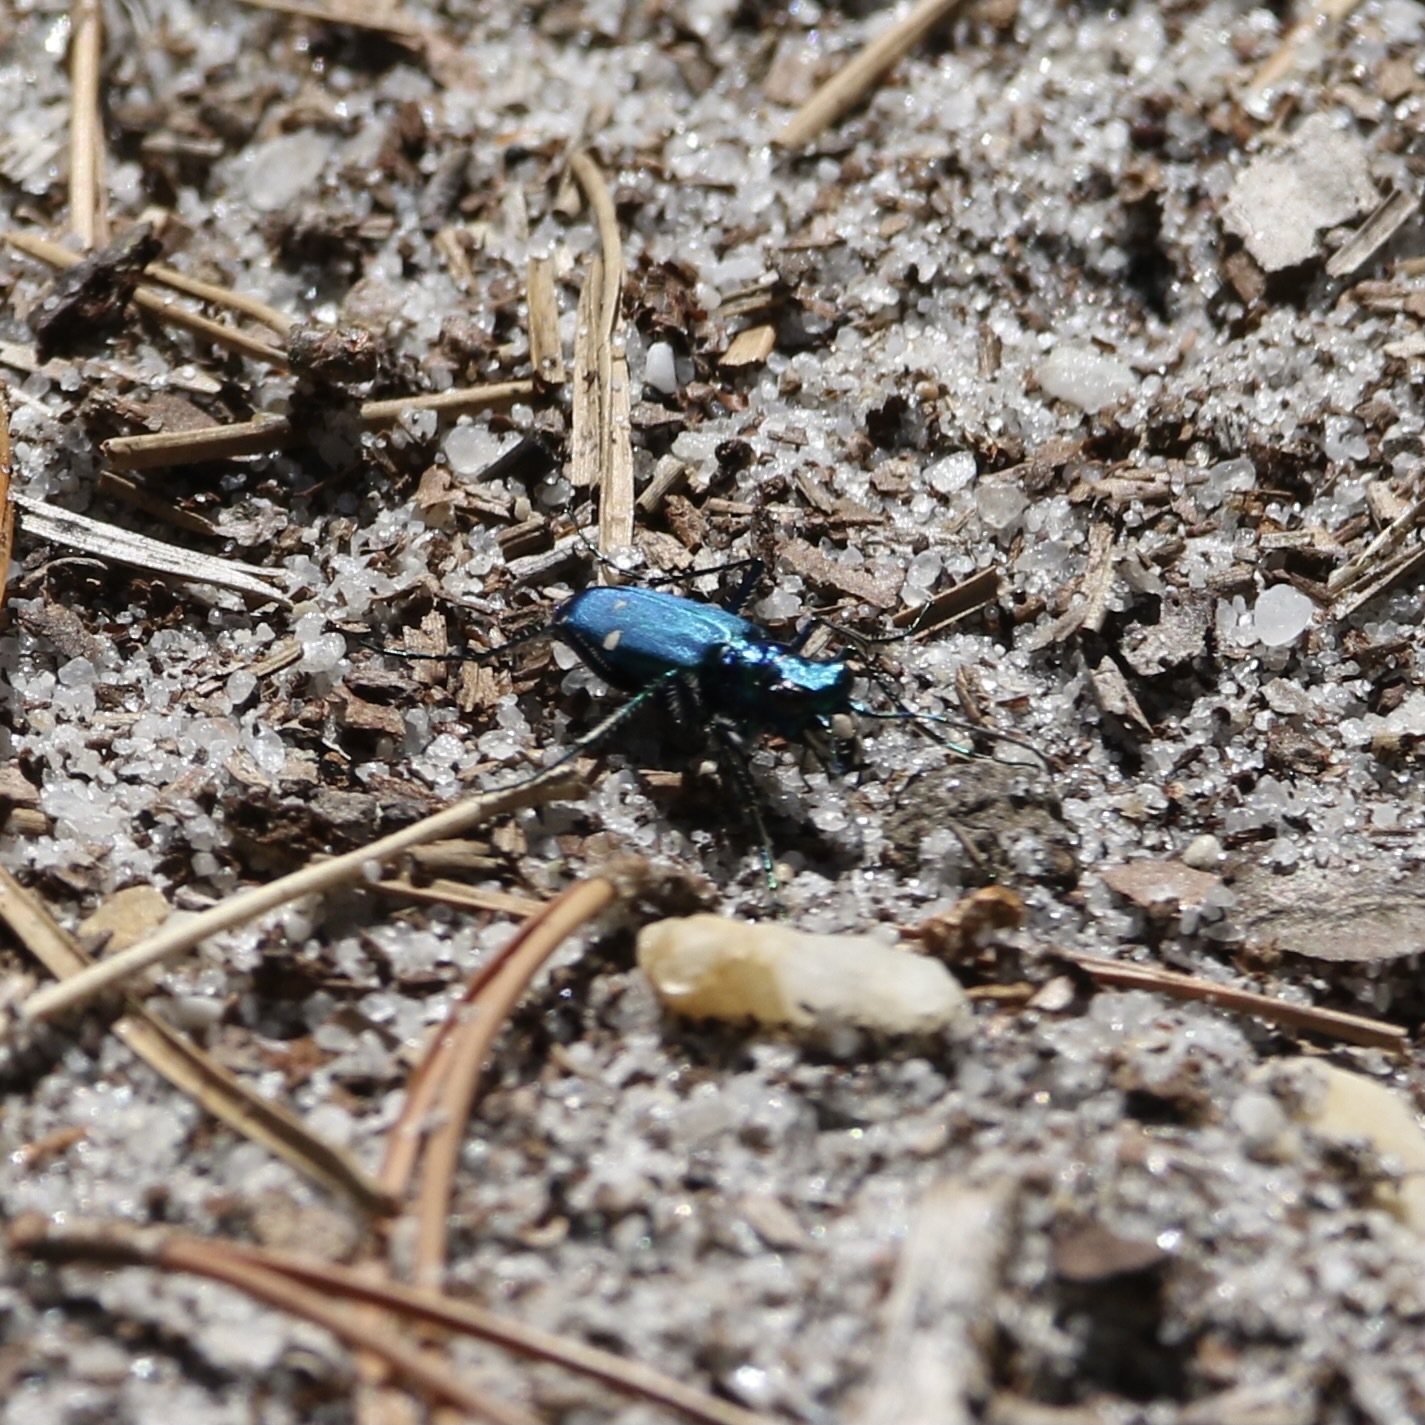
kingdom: Animalia
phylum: Arthropoda
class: Insecta
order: Coleoptera
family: Carabidae
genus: Cicindela
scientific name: Cicindela sexguttata
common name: Six-spotted tiger beetle
